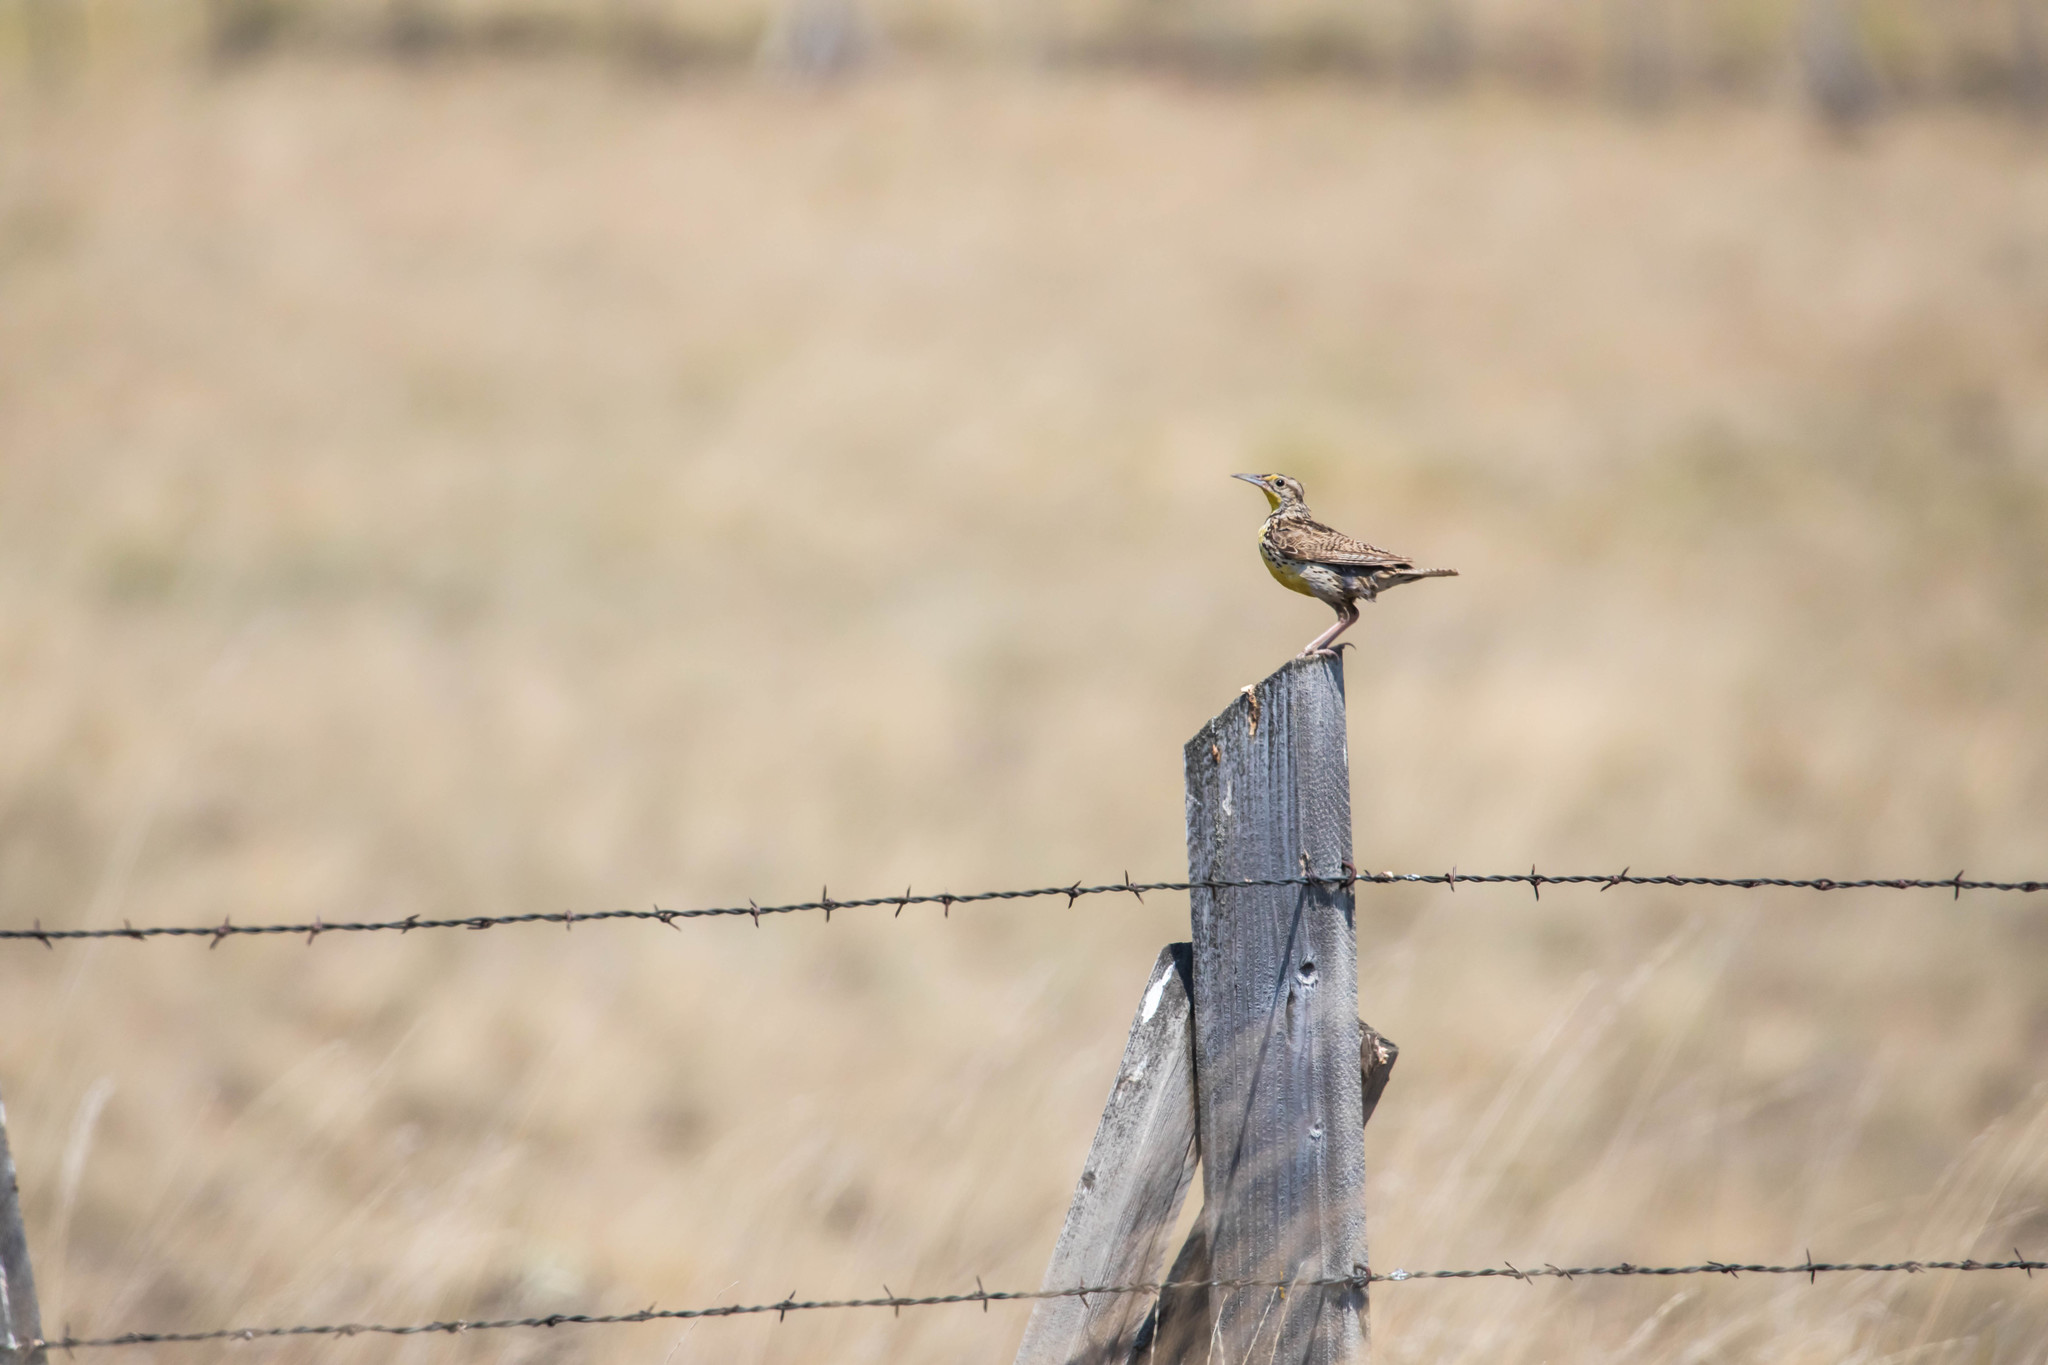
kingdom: Animalia
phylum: Chordata
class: Aves
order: Passeriformes
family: Icteridae
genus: Sturnella
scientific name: Sturnella neglecta
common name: Western meadowlark
